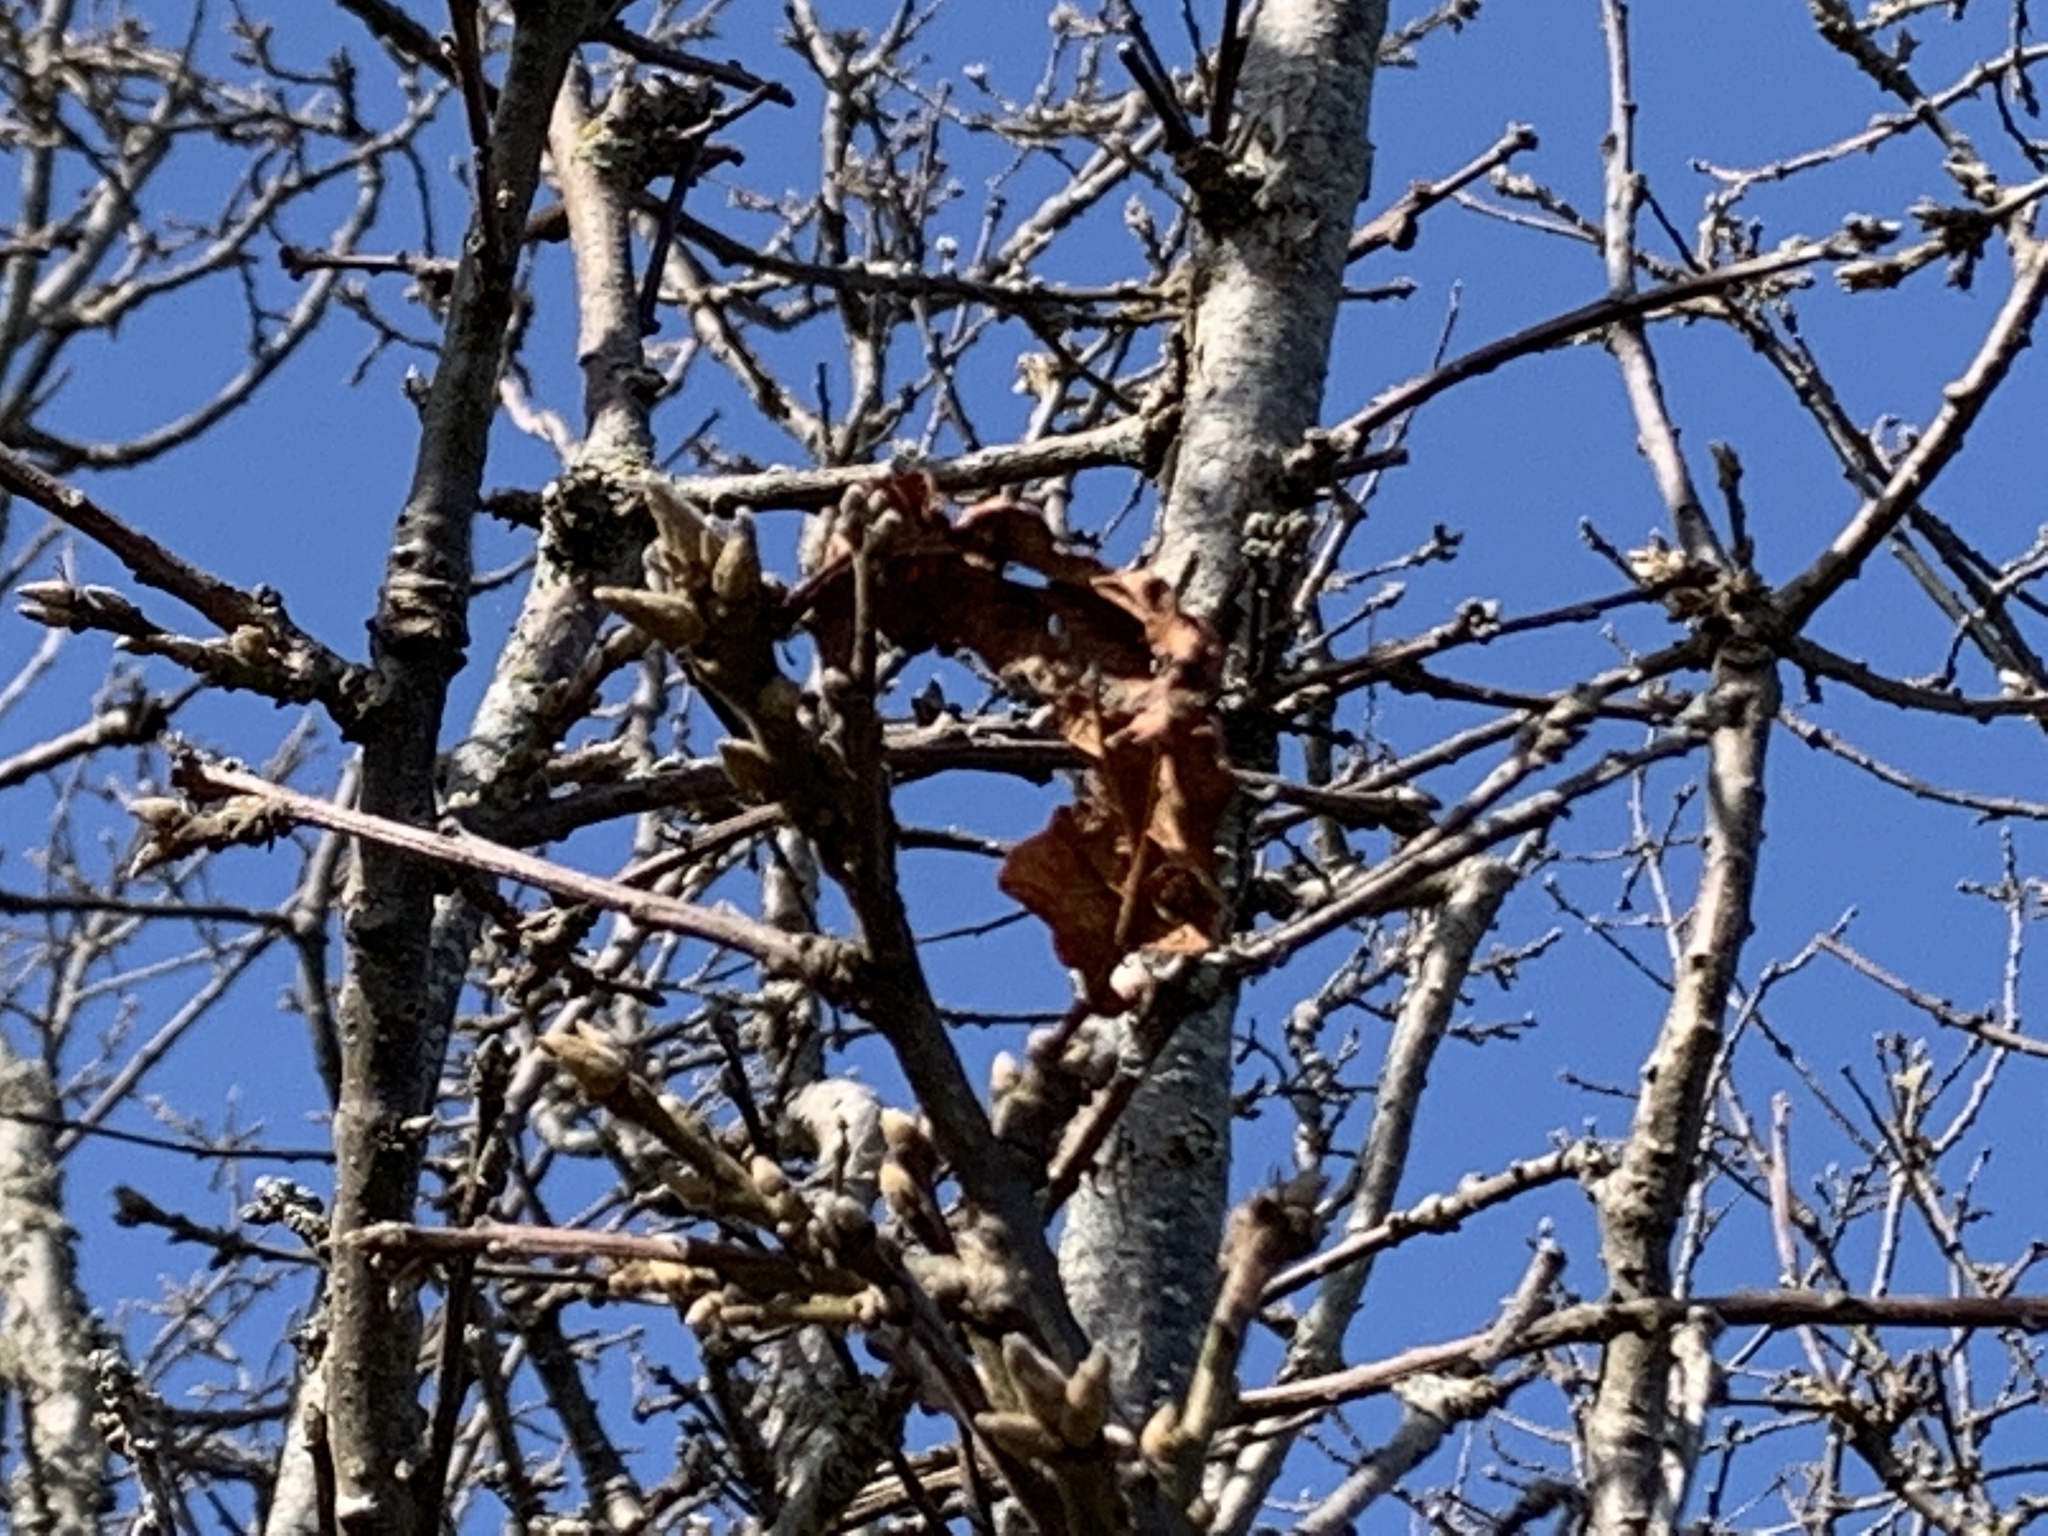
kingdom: Plantae
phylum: Tracheophyta
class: Magnoliopsida
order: Fagales
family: Fagaceae
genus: Quercus
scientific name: Quercus garryana
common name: Garry oak
